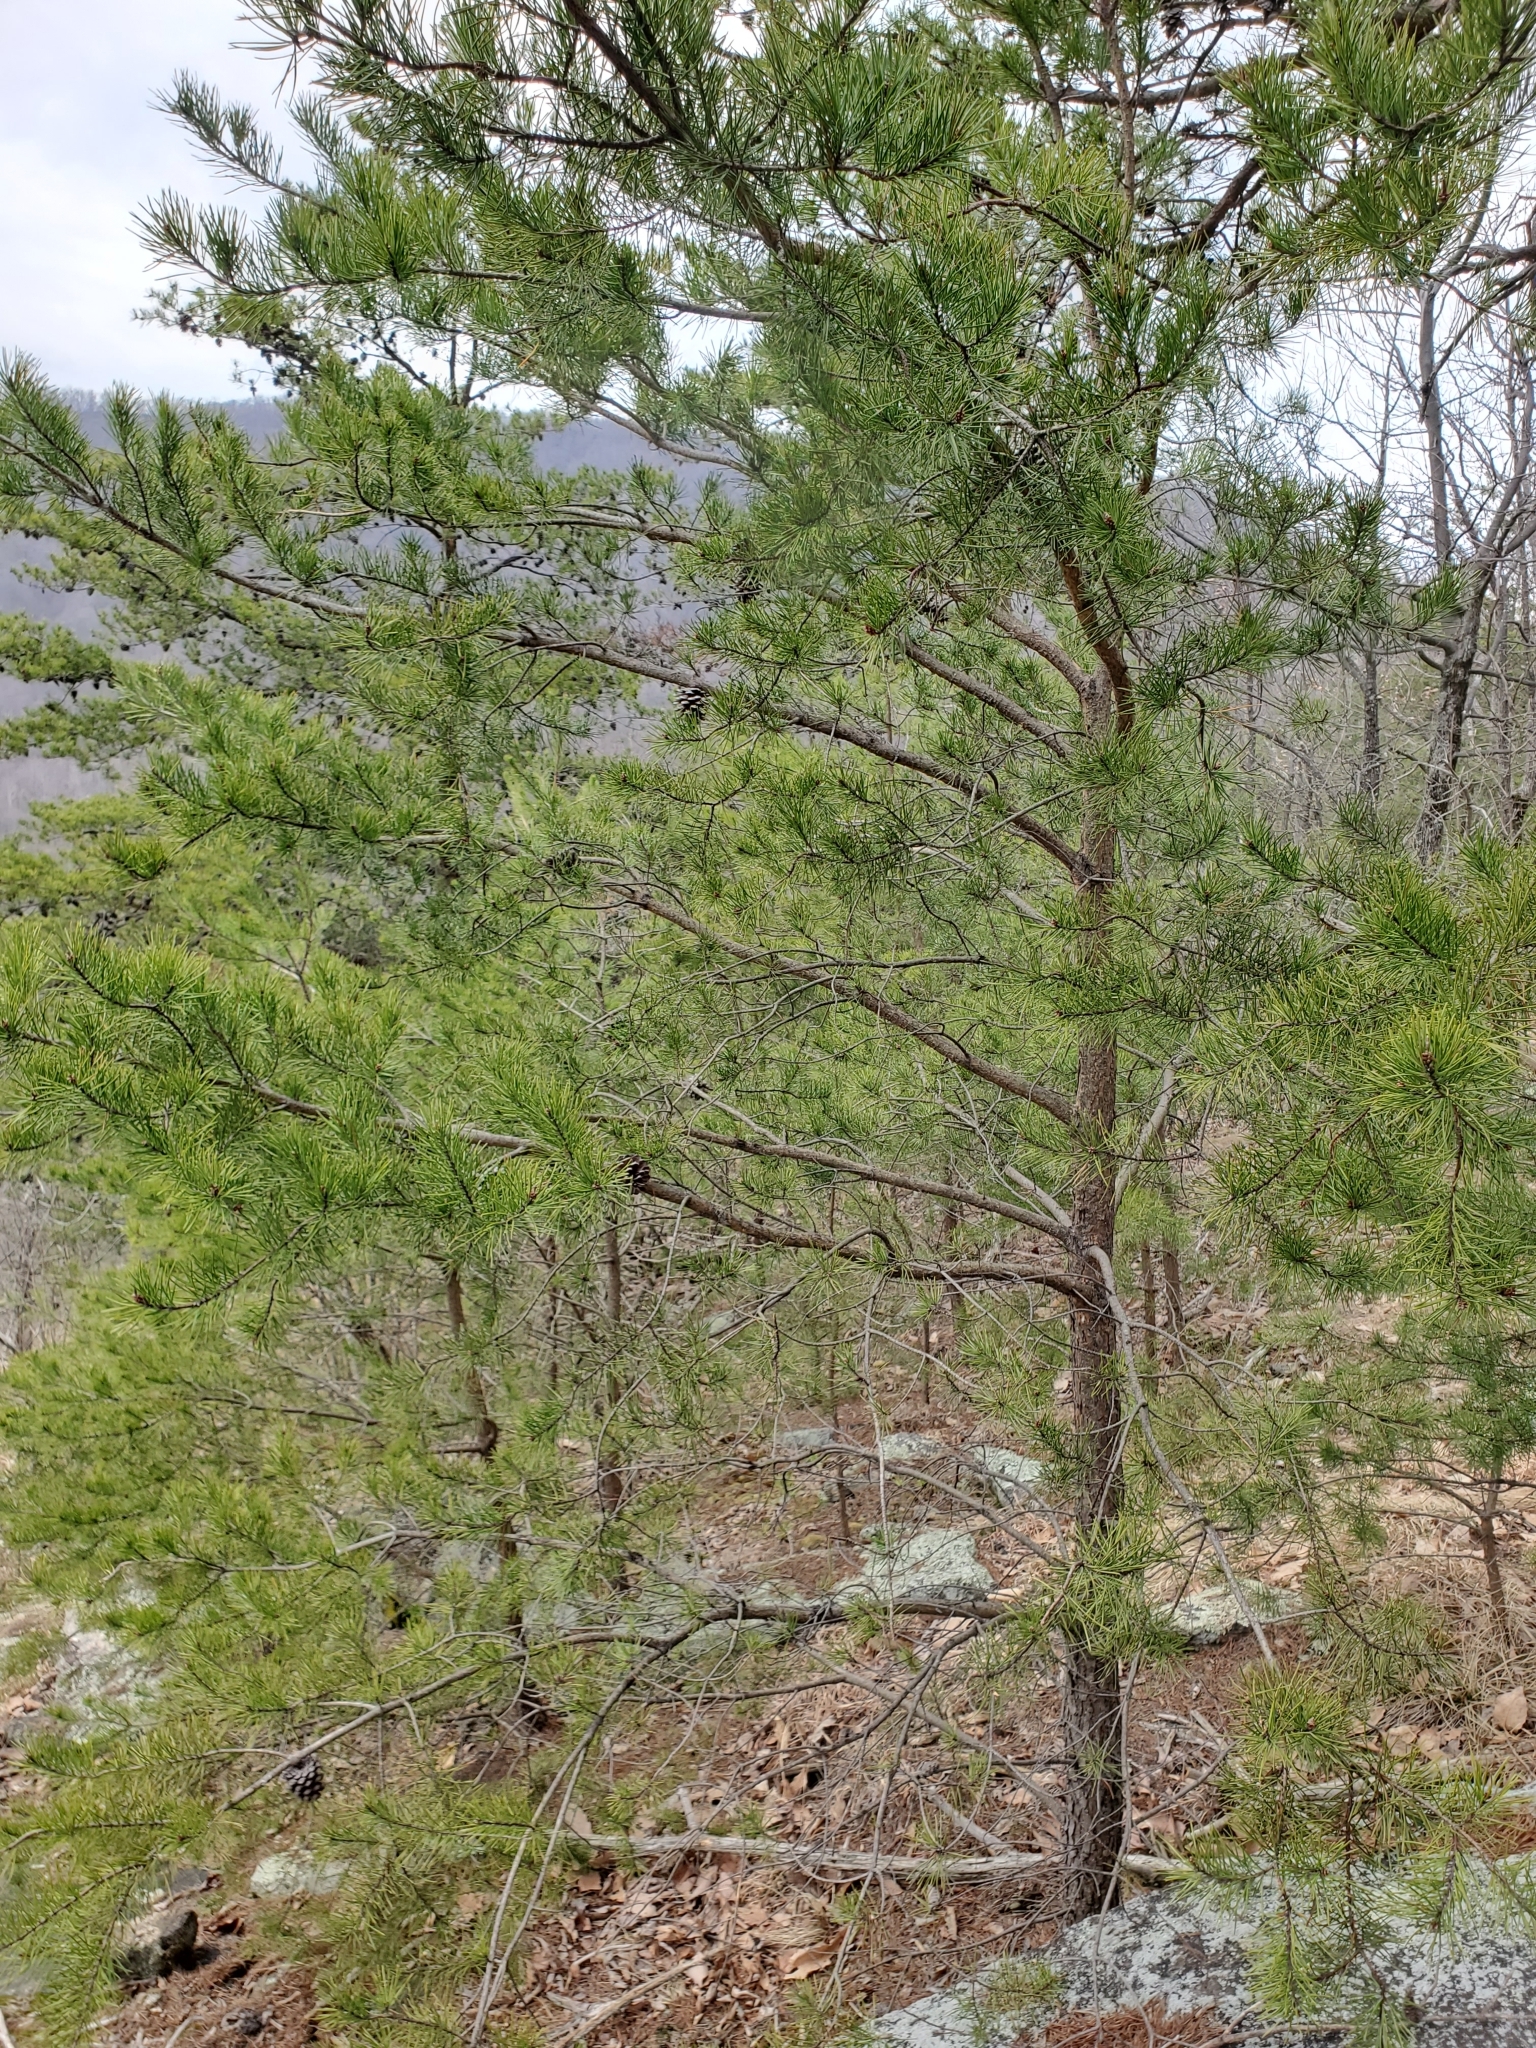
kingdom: Plantae
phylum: Tracheophyta
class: Pinopsida
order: Pinales
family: Pinaceae
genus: Pinus
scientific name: Pinus virginiana
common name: Scrub pine
